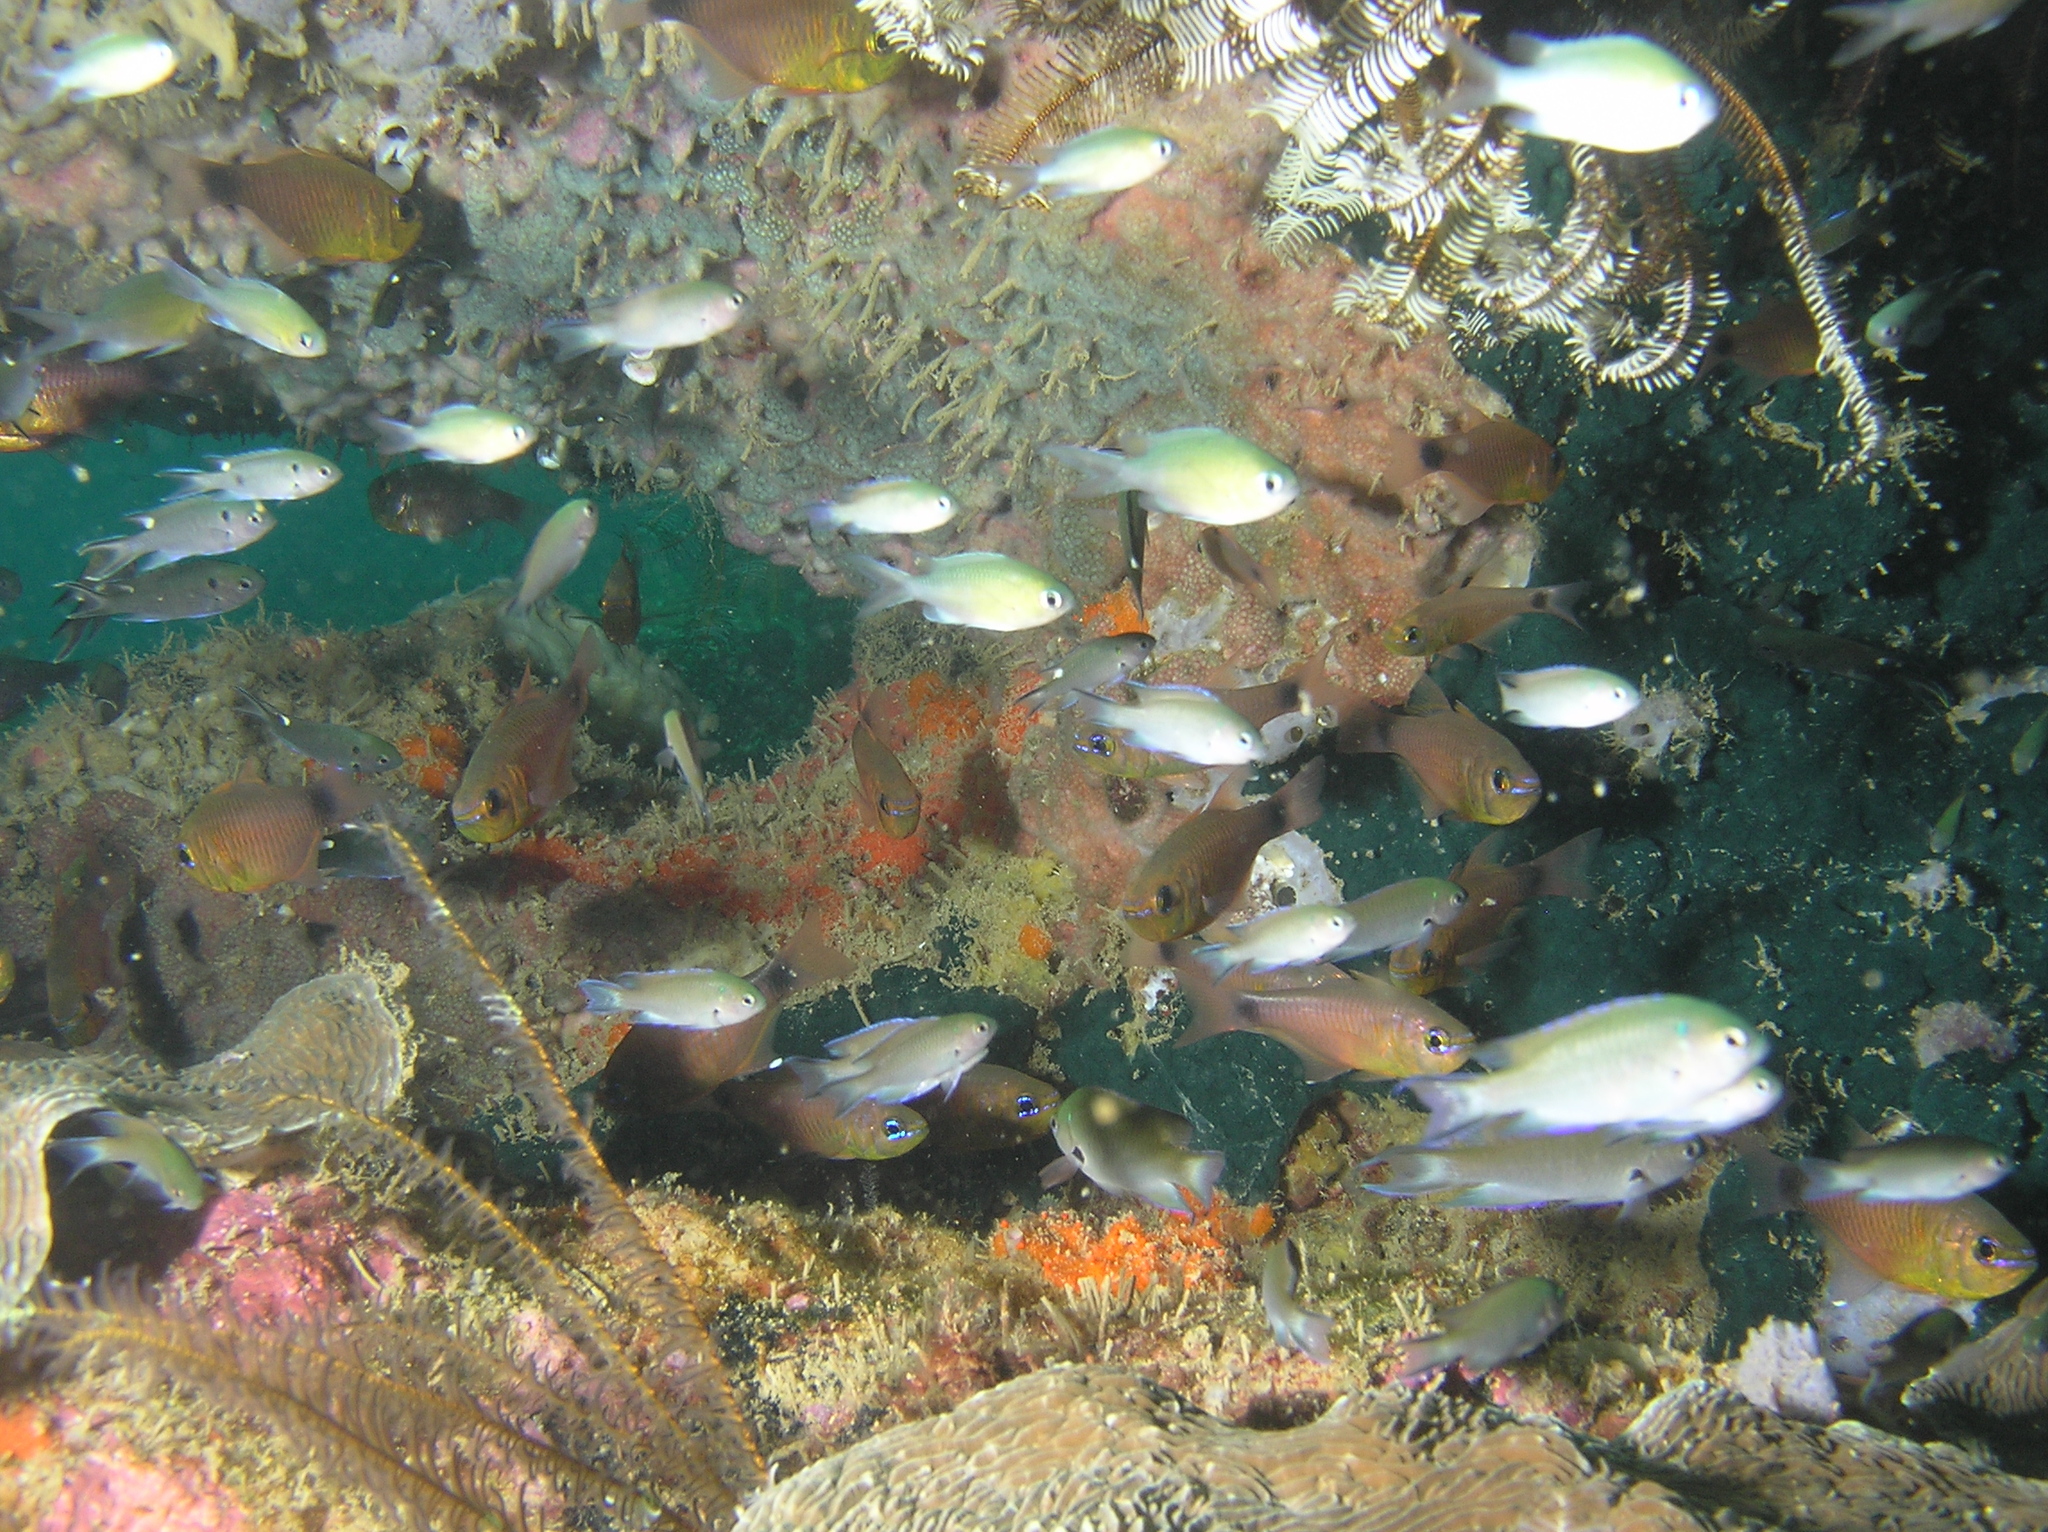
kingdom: Animalia
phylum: Chordata
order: Perciformes
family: Apogonidae
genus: Taeniamia
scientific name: Taeniamia fucata
